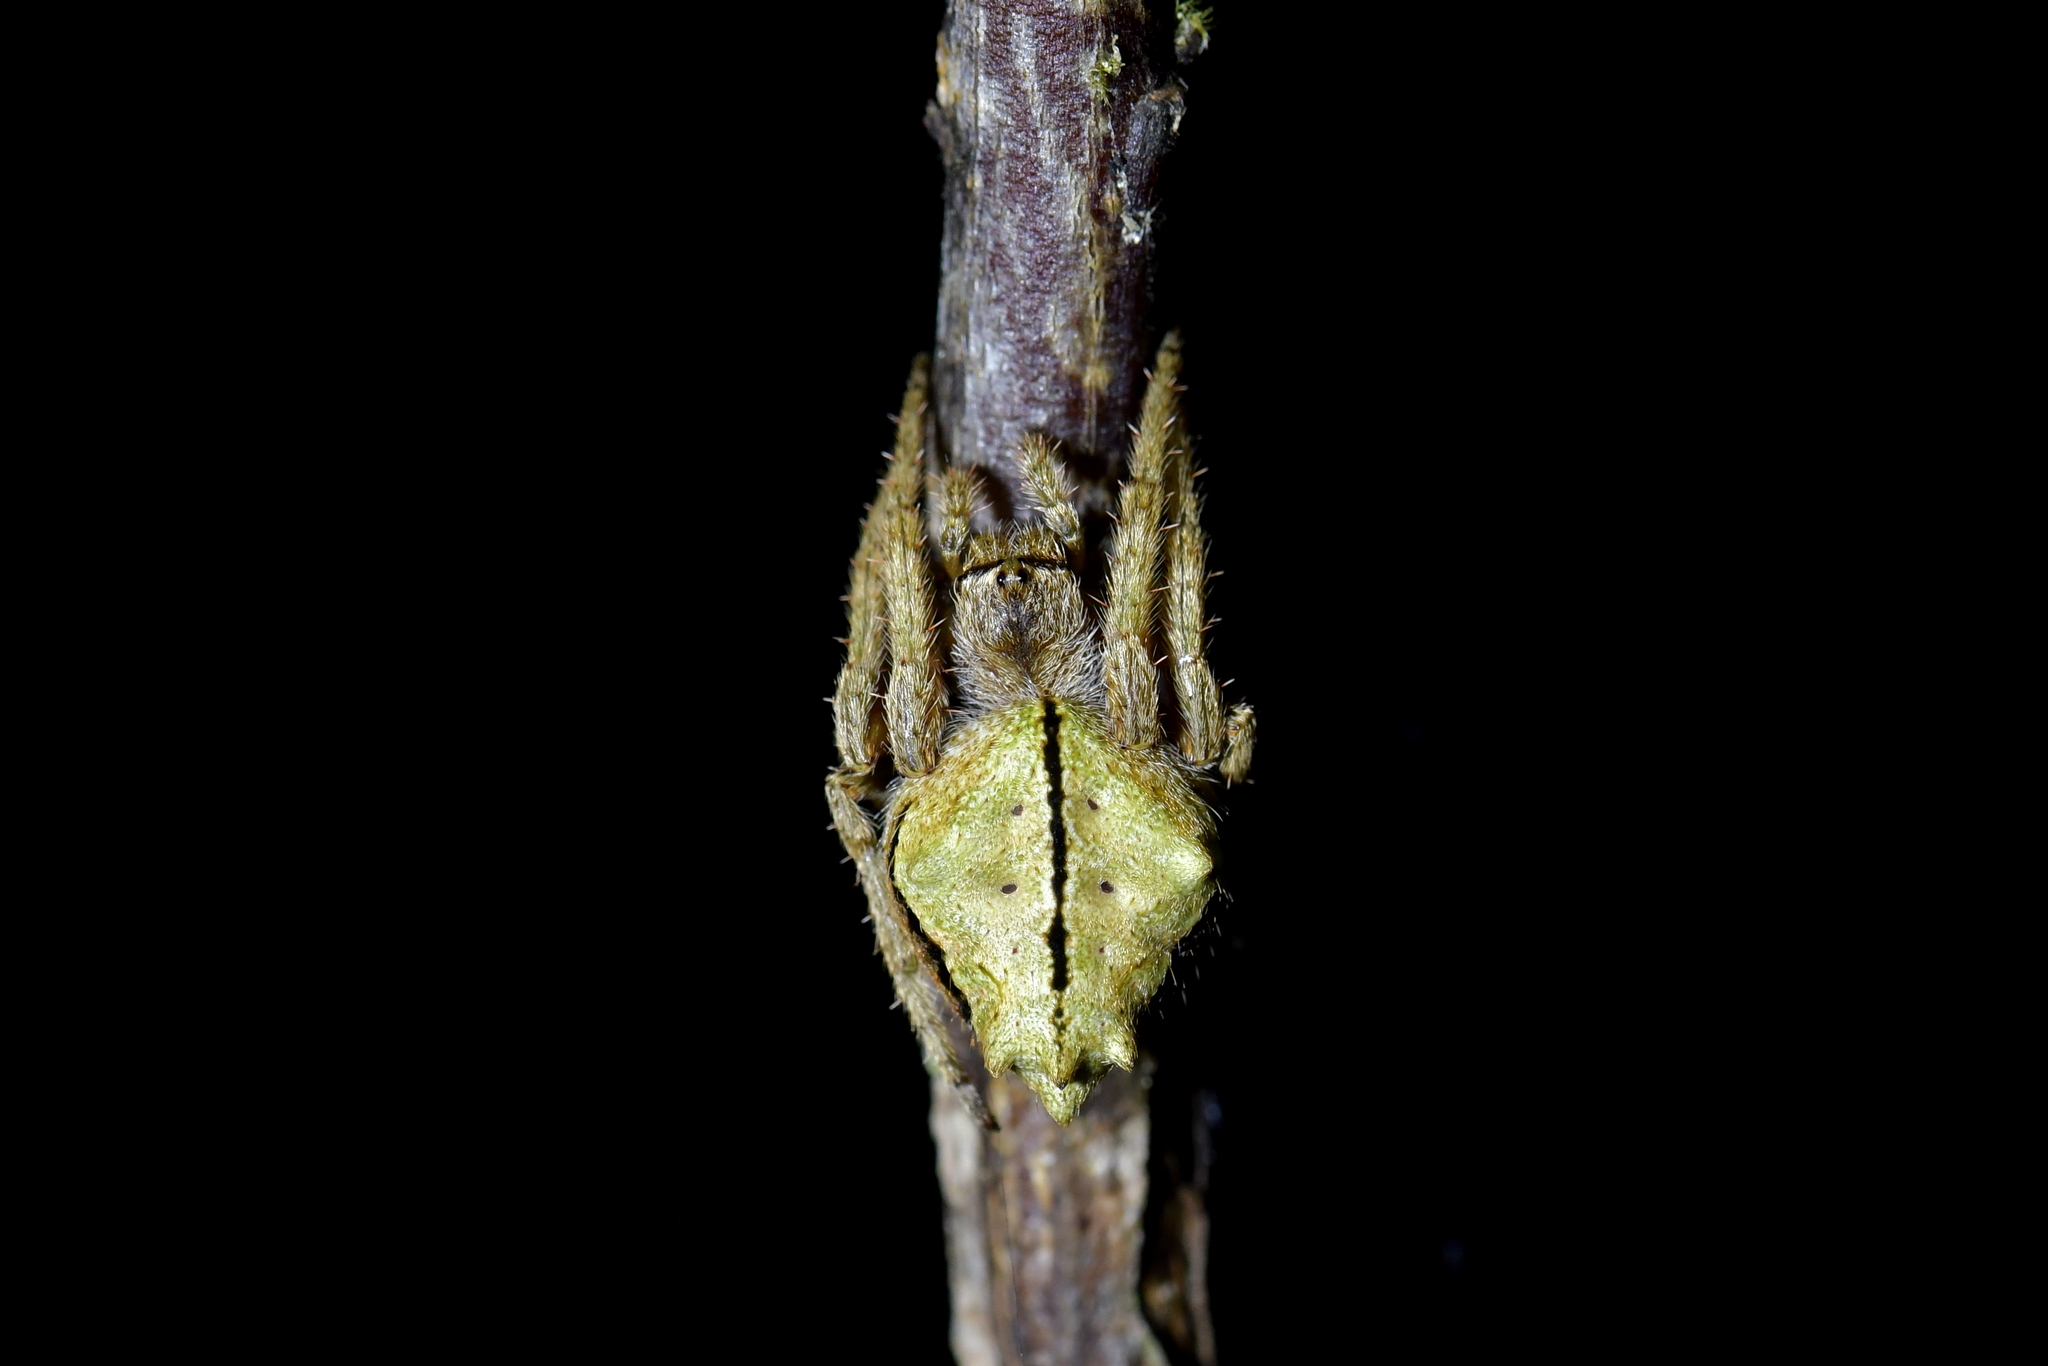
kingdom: Animalia
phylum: Arthropoda
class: Arachnida
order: Araneae
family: Araneidae
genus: Eriophora
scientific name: Eriophora pustulosa
